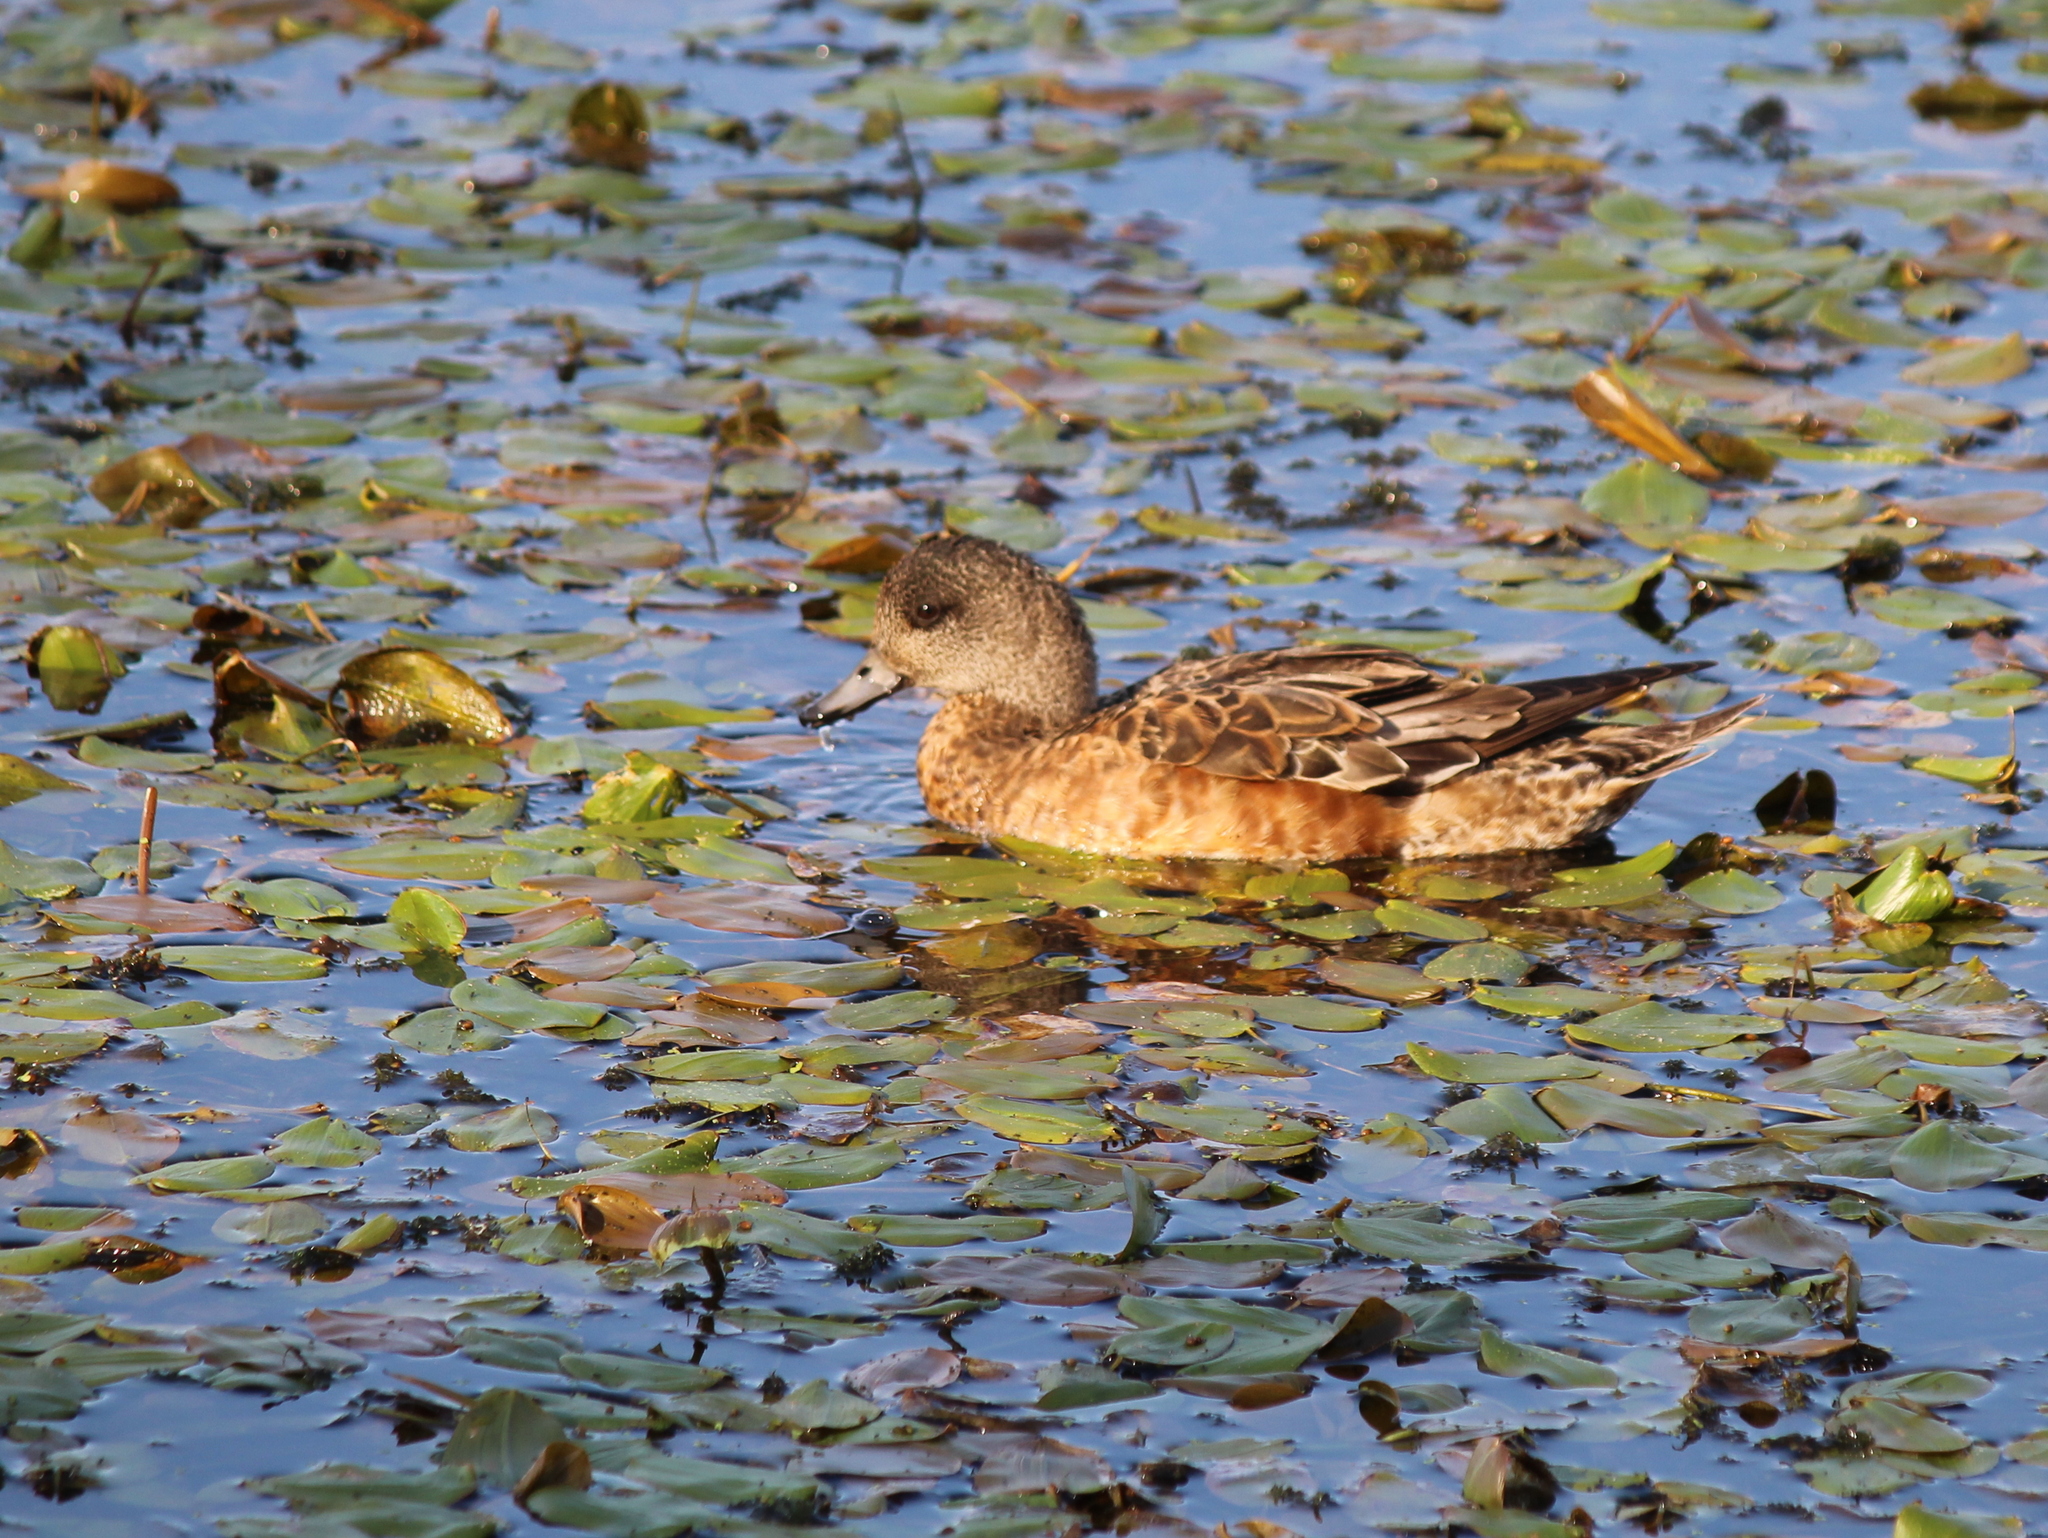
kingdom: Animalia
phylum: Chordata
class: Aves
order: Anseriformes
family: Anatidae
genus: Mareca
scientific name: Mareca americana
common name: American wigeon
